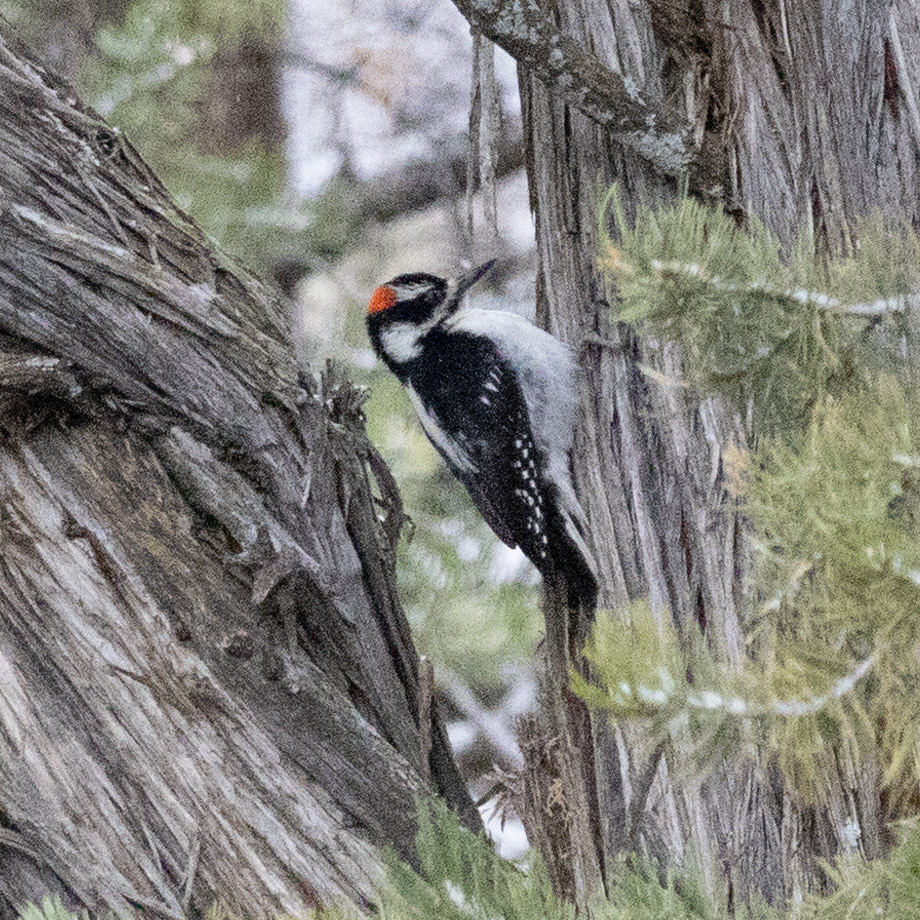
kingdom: Animalia
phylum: Chordata
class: Aves
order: Piciformes
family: Picidae
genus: Leuconotopicus
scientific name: Leuconotopicus villosus
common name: Hairy woodpecker
